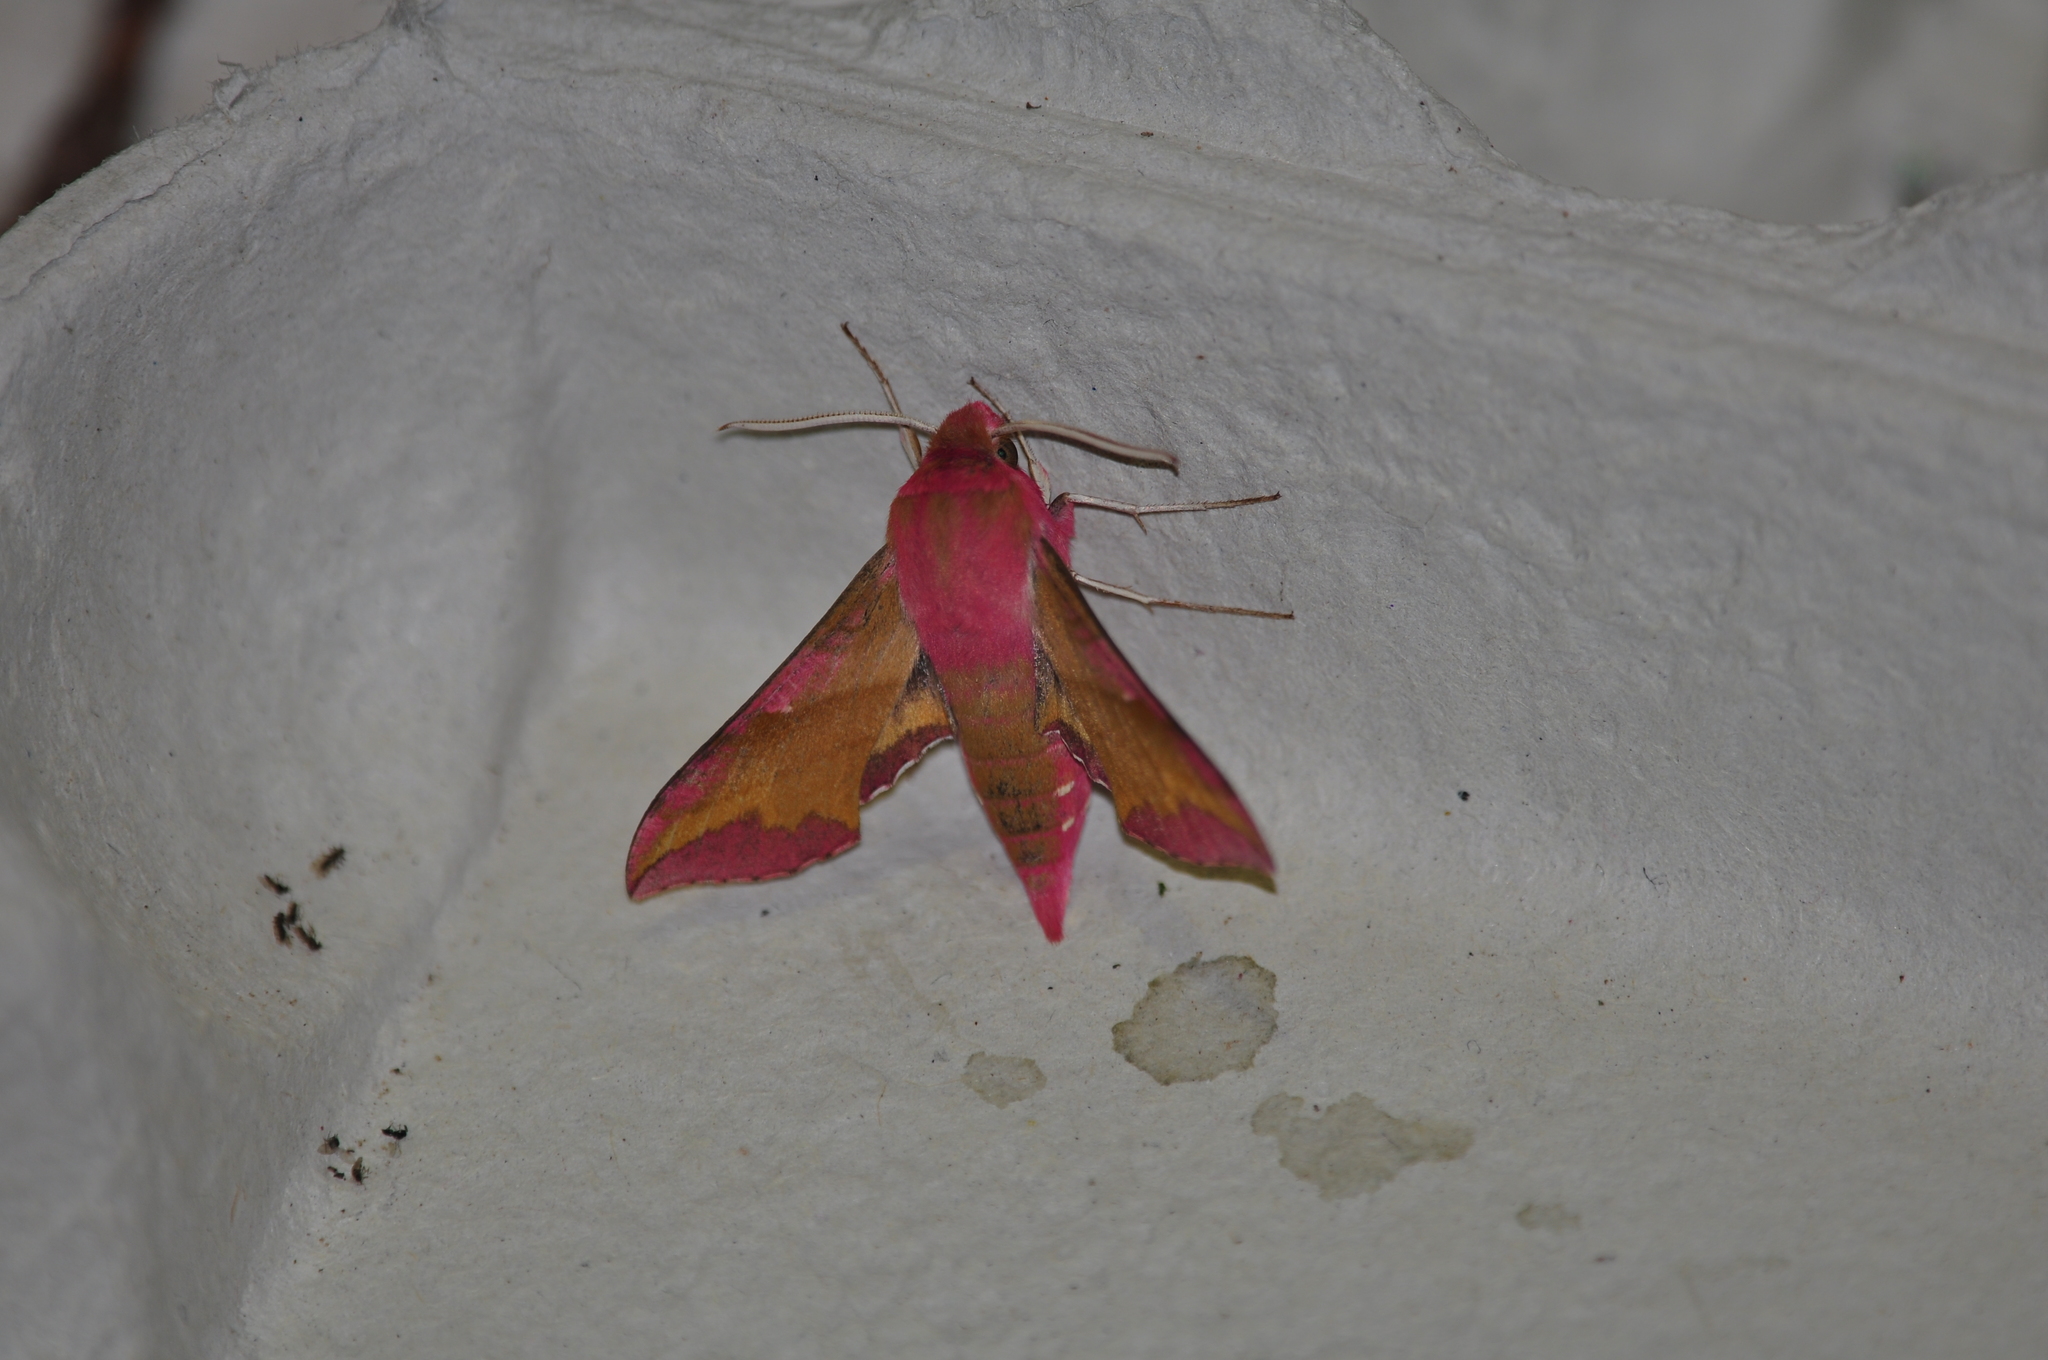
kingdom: Animalia
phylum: Arthropoda
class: Insecta
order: Lepidoptera
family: Sphingidae
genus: Deilephila
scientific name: Deilephila porcellus
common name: Small elephant hawk-moth
